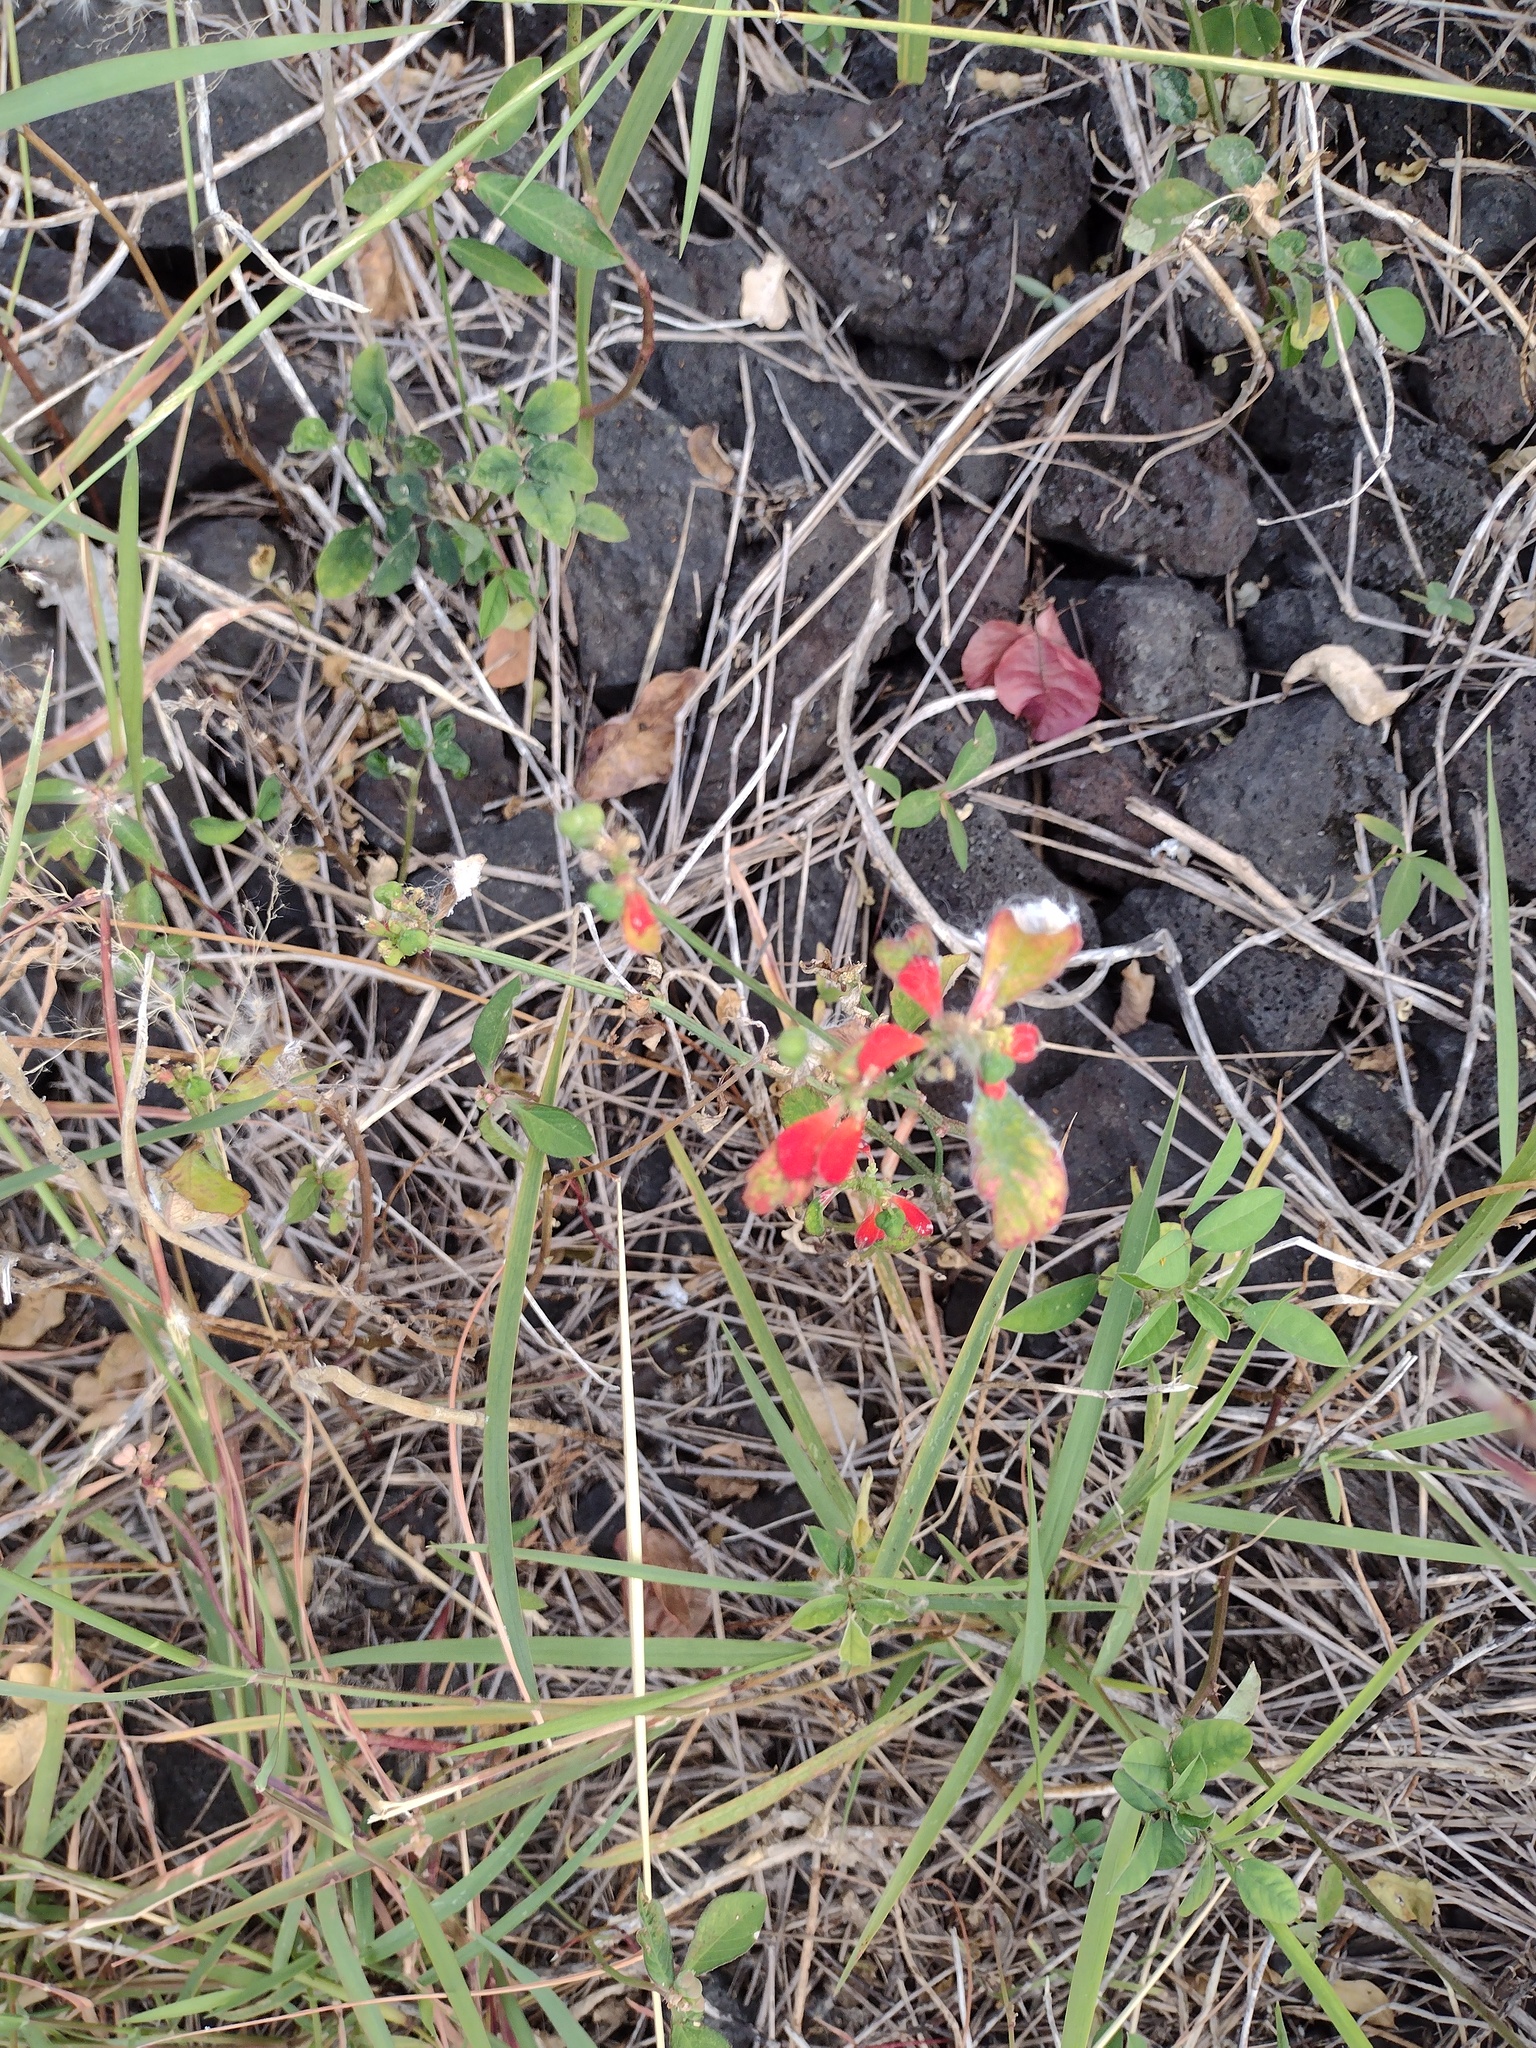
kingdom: Plantae
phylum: Tracheophyta
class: Magnoliopsida
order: Malpighiales
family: Euphorbiaceae
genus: Euphorbia
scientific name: Euphorbia heterophylla
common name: Mexican fireplant
